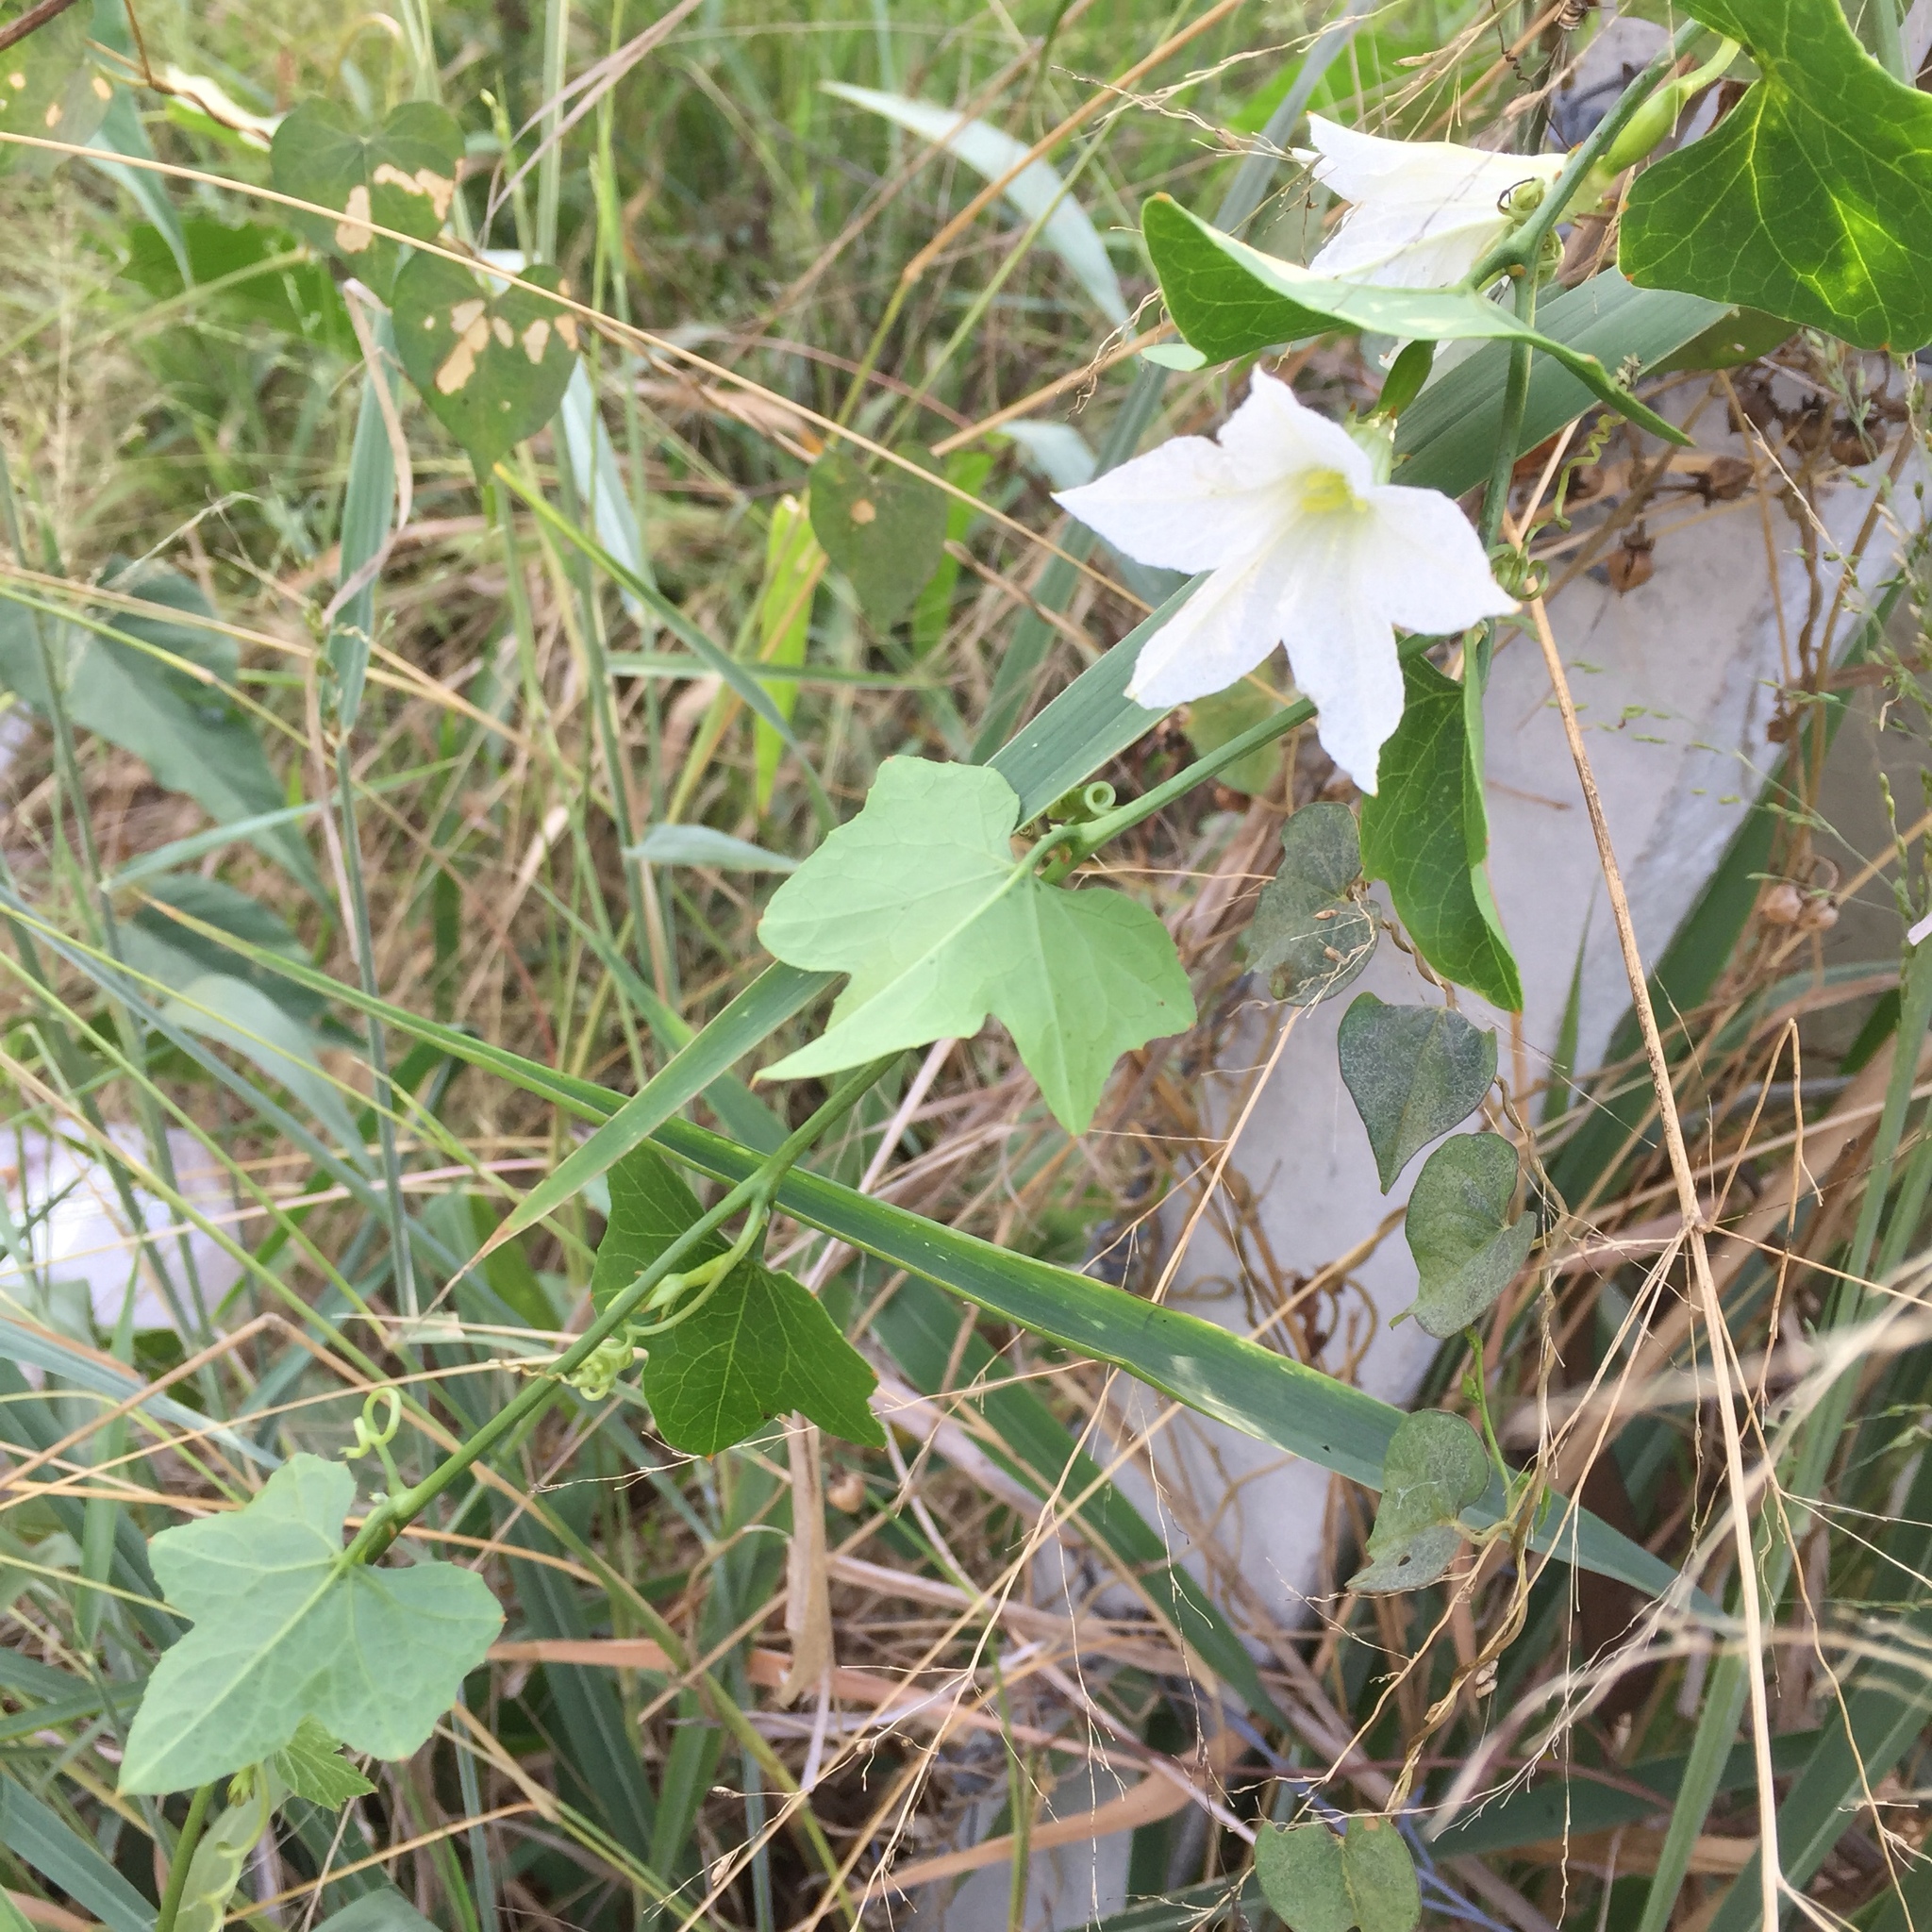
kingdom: Plantae
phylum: Tracheophyta
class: Magnoliopsida
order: Cucurbitales
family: Cucurbitaceae
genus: Coccinia
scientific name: Coccinia grandis
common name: Ivy gourd
